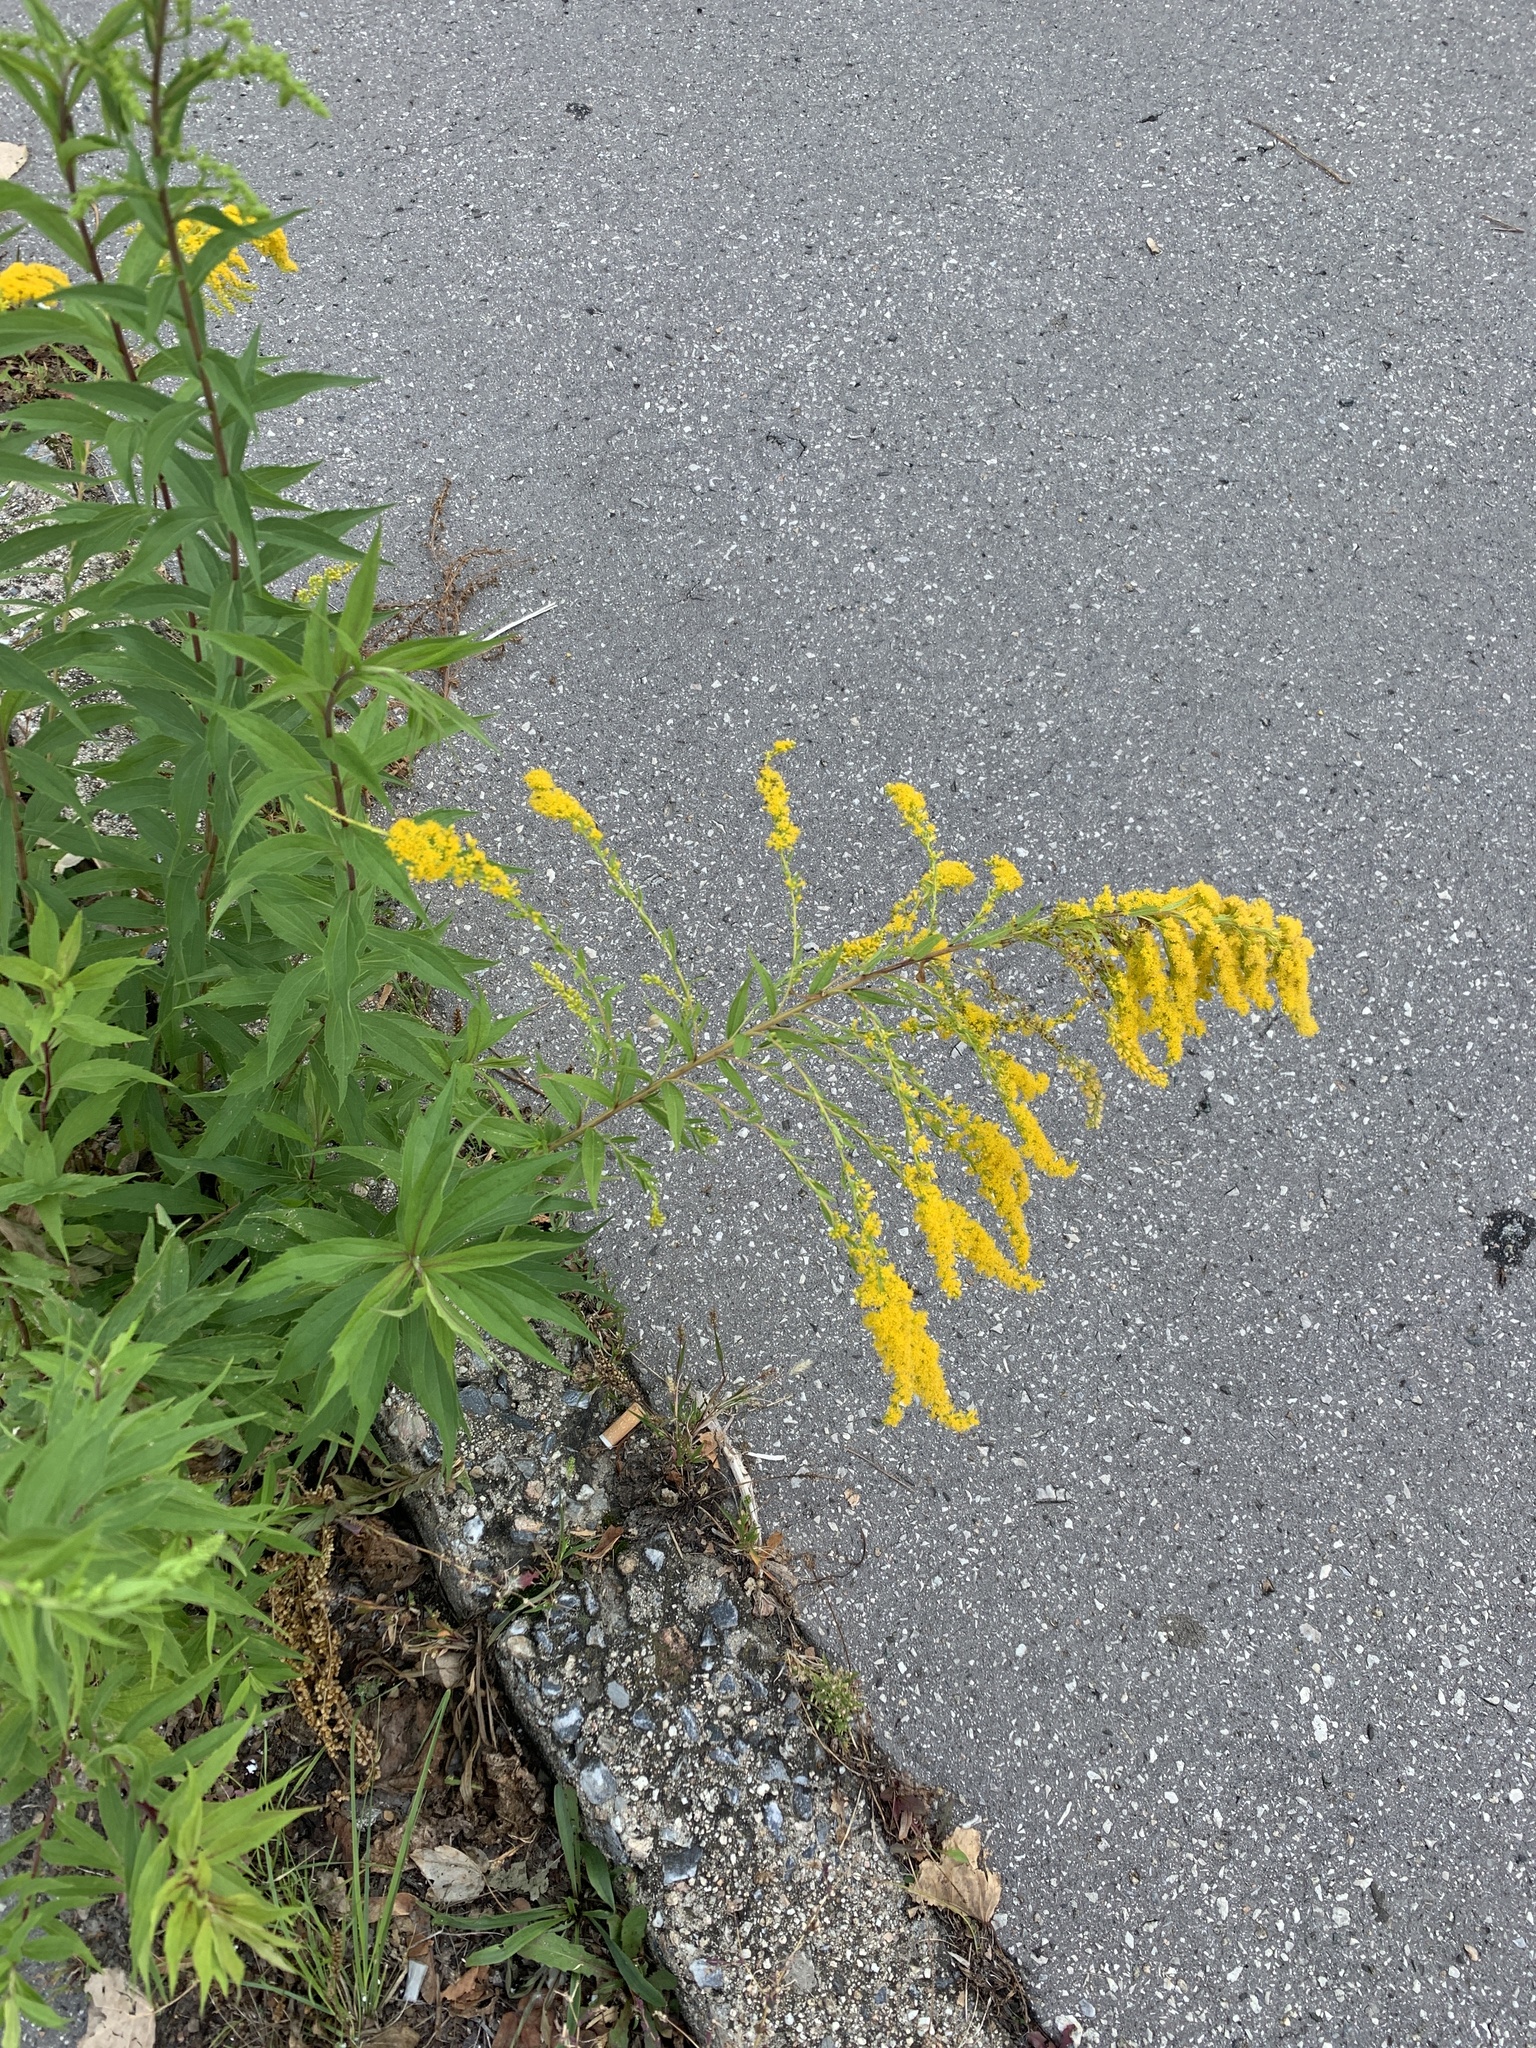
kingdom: Plantae
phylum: Tracheophyta
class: Magnoliopsida
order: Asterales
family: Asteraceae
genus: Solidago
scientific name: Solidago canadensis
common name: Canada goldenrod
